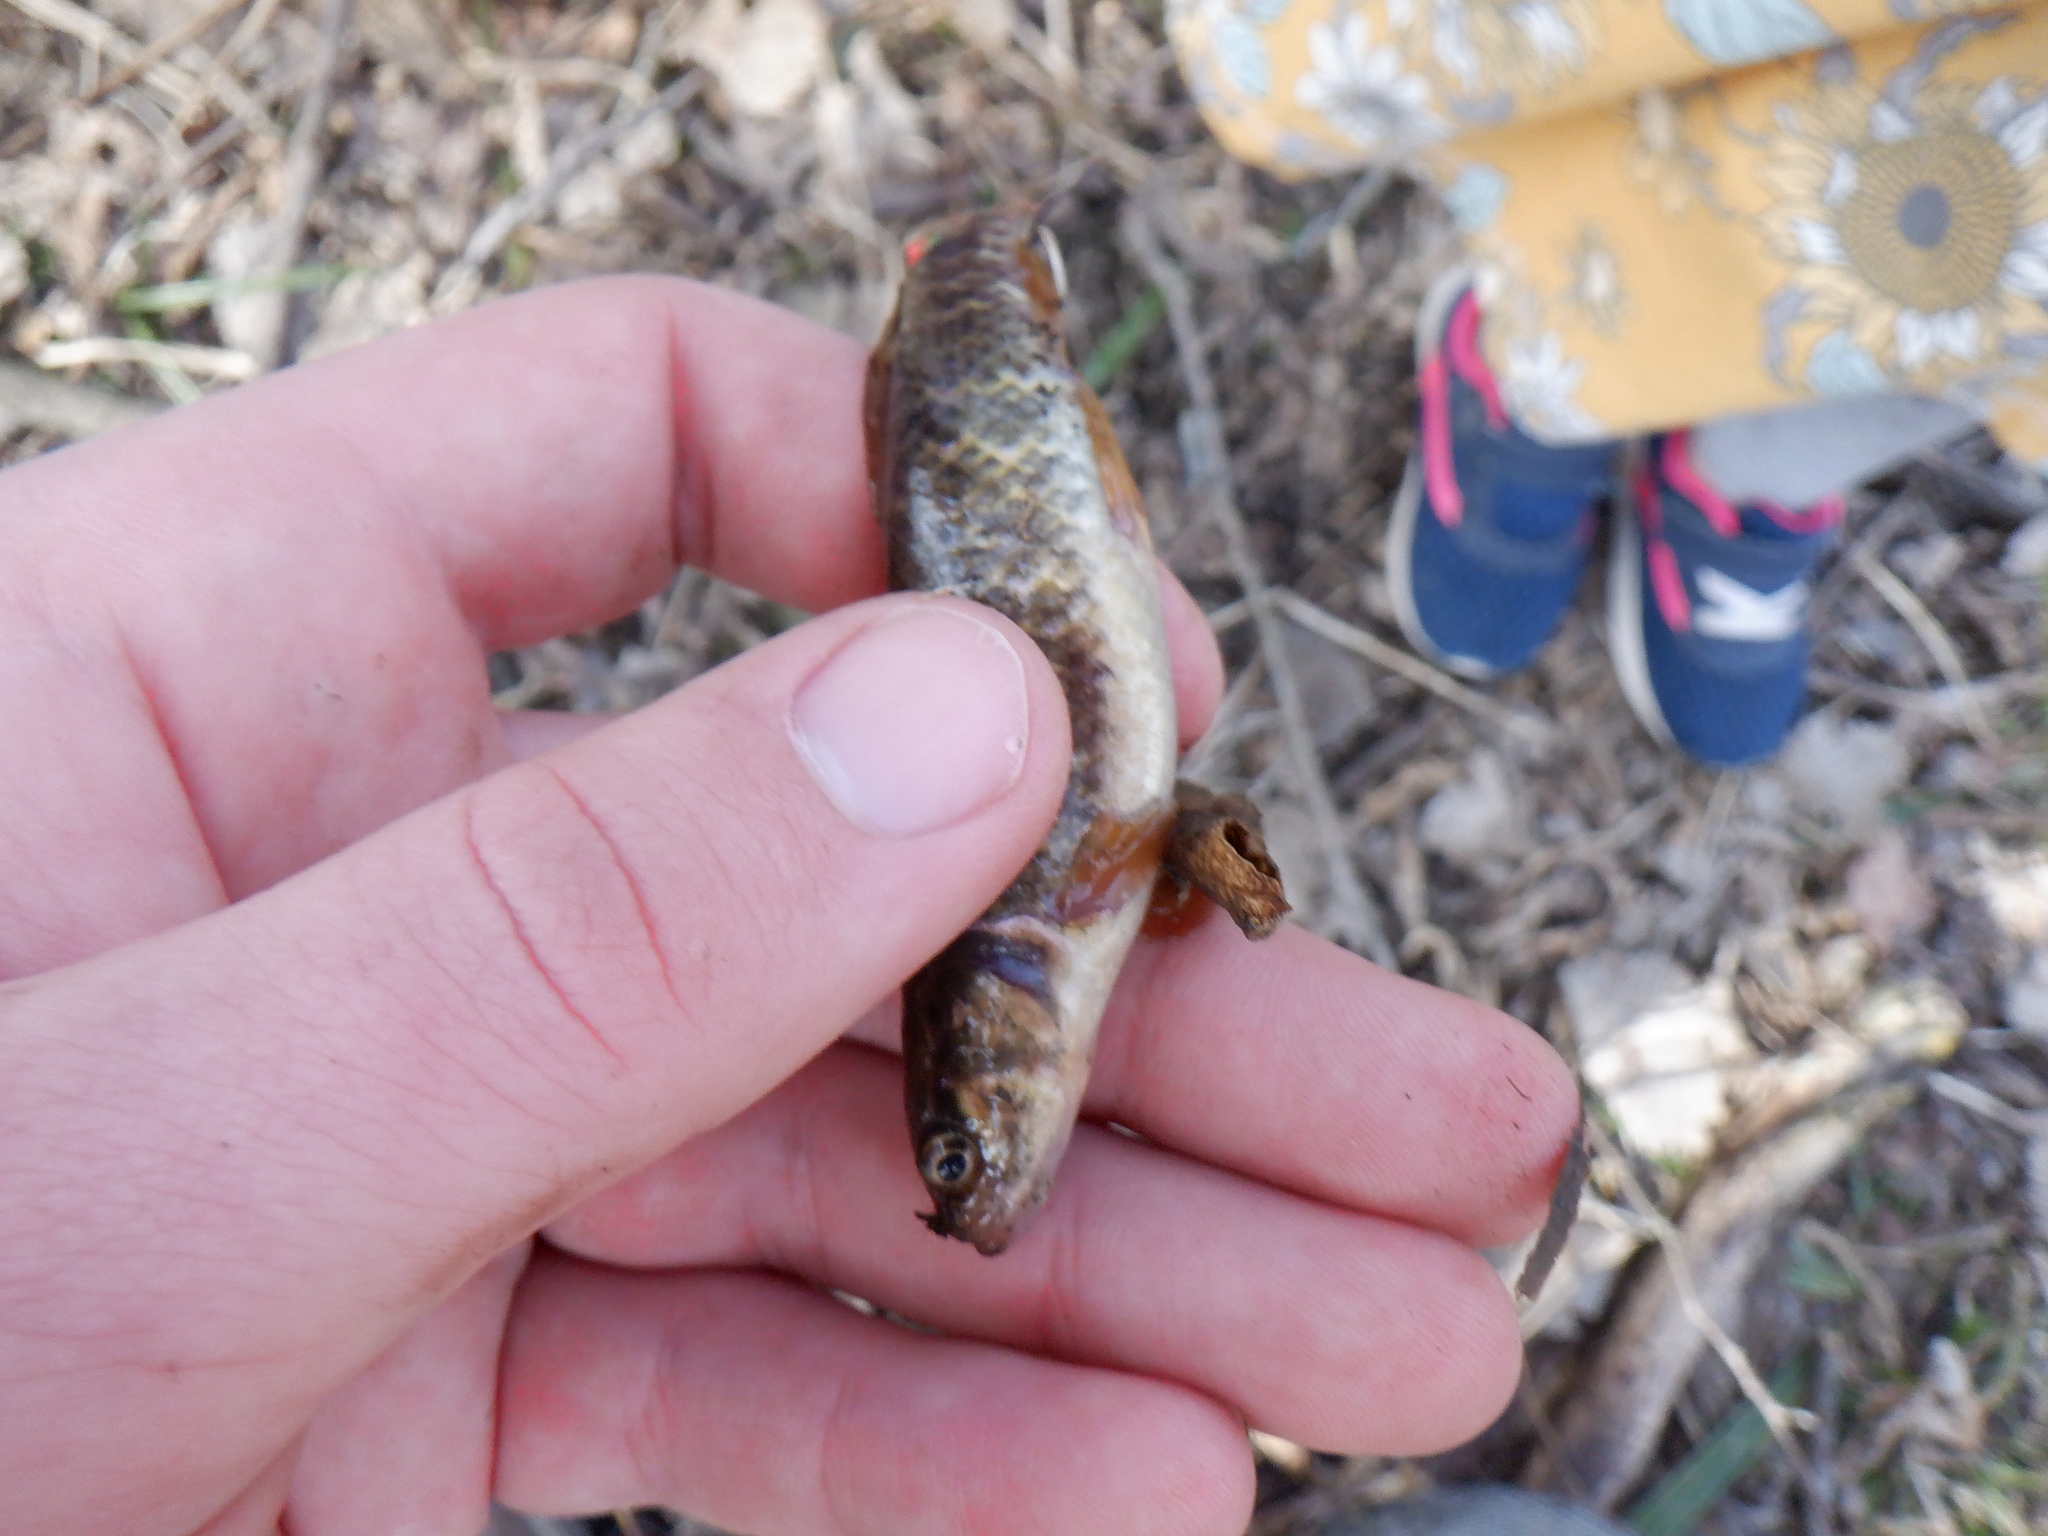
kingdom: Animalia
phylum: Chordata
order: Esociformes
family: Umbridae
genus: Umbra
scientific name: Umbra limi
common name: Central mudminnow
